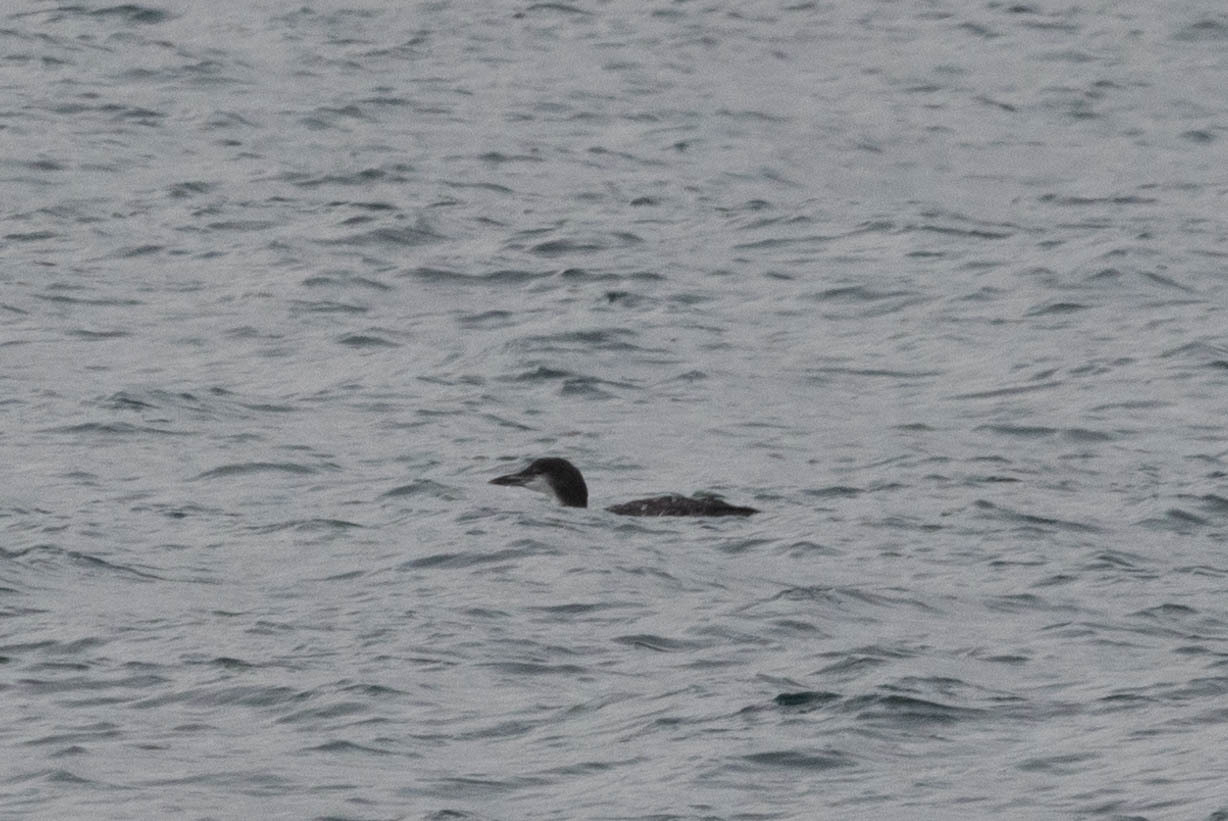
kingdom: Animalia
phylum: Chordata
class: Aves
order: Gaviiformes
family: Gaviidae
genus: Gavia
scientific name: Gavia immer
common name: Common loon
